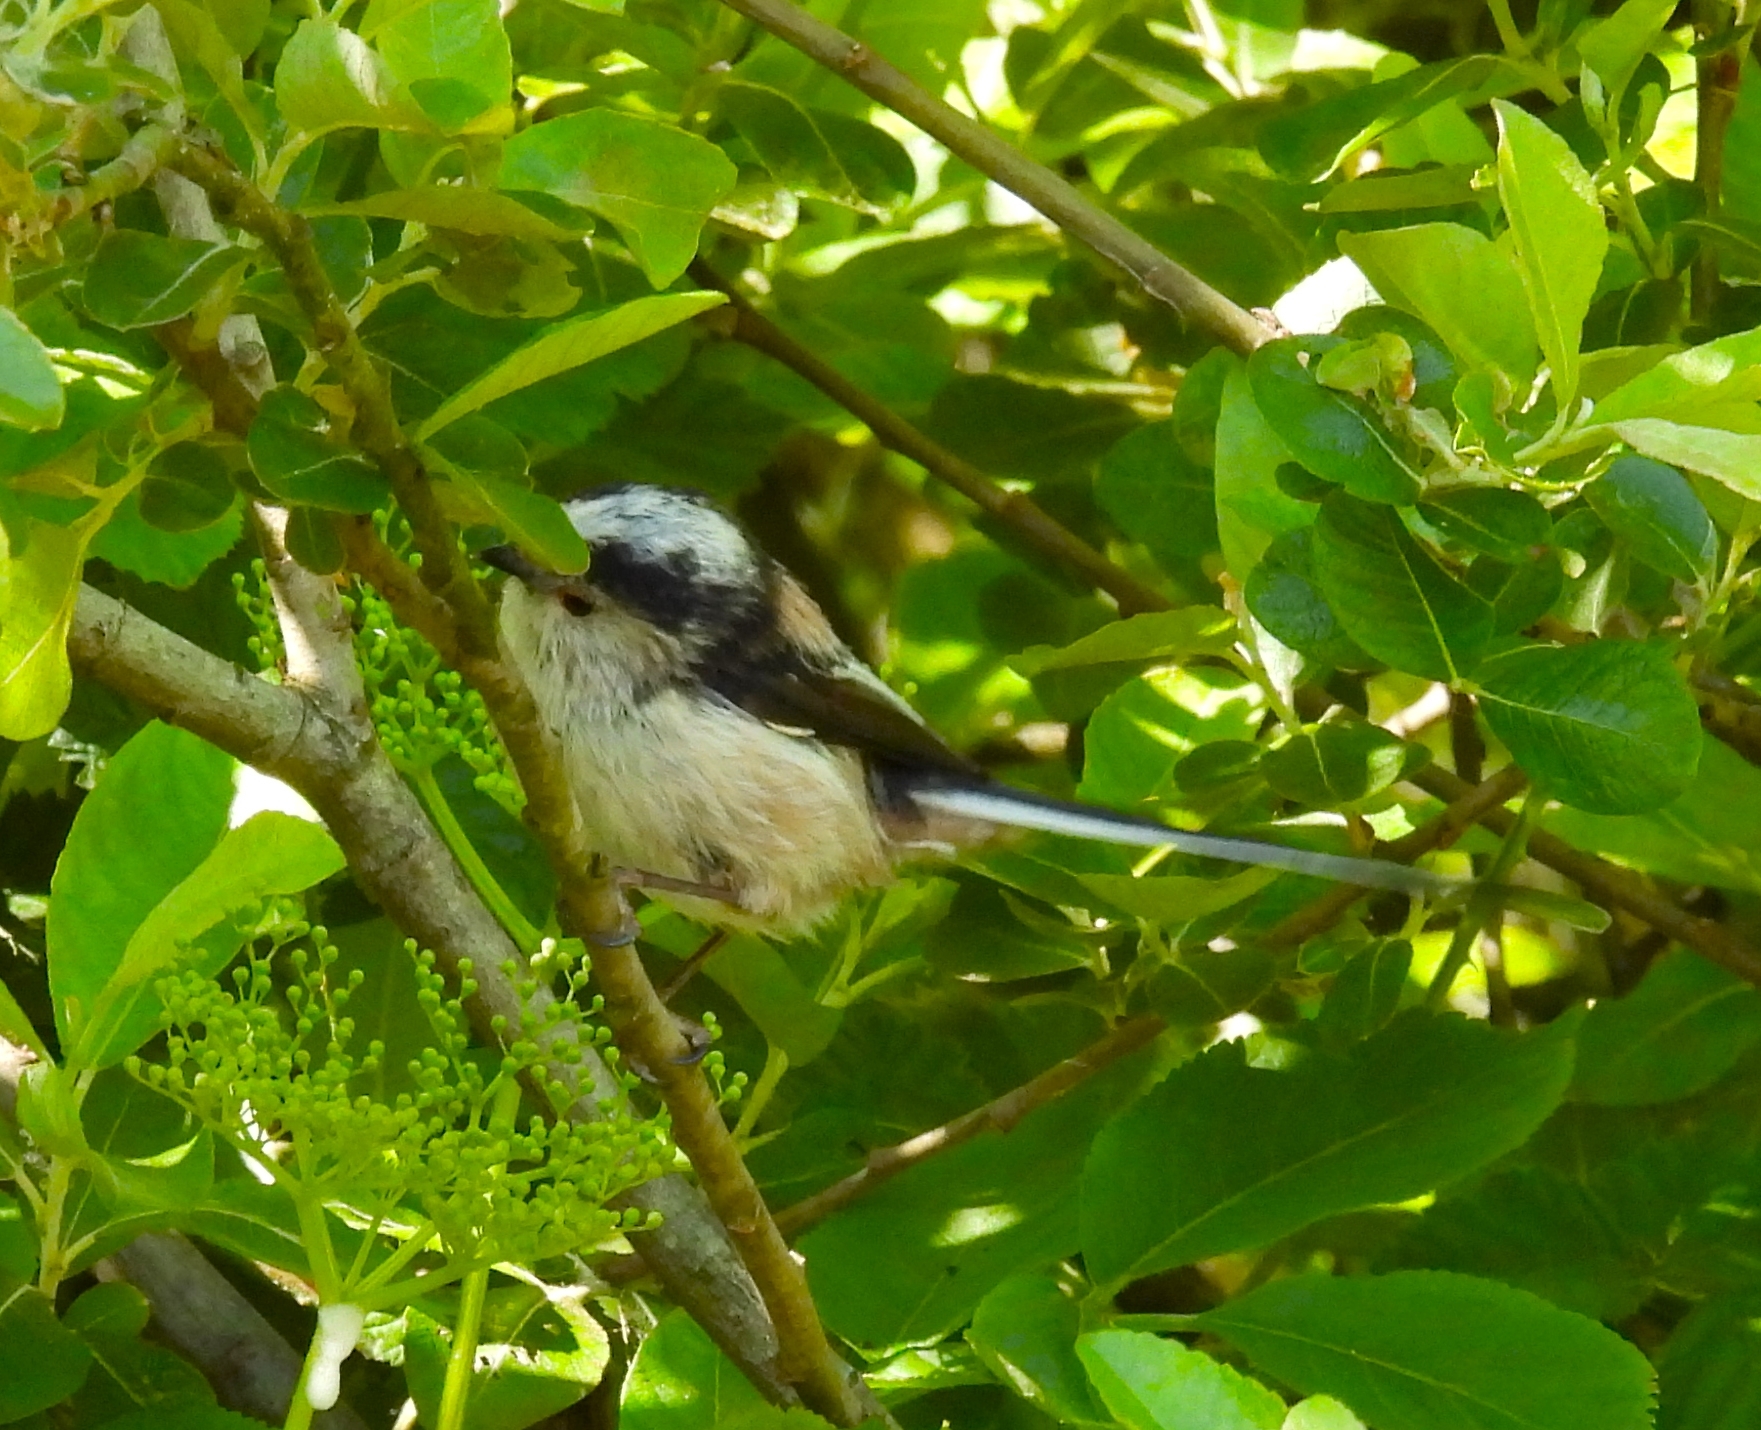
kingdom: Animalia
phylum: Chordata
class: Aves
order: Passeriformes
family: Aegithalidae
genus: Aegithalos
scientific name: Aegithalos caudatus
